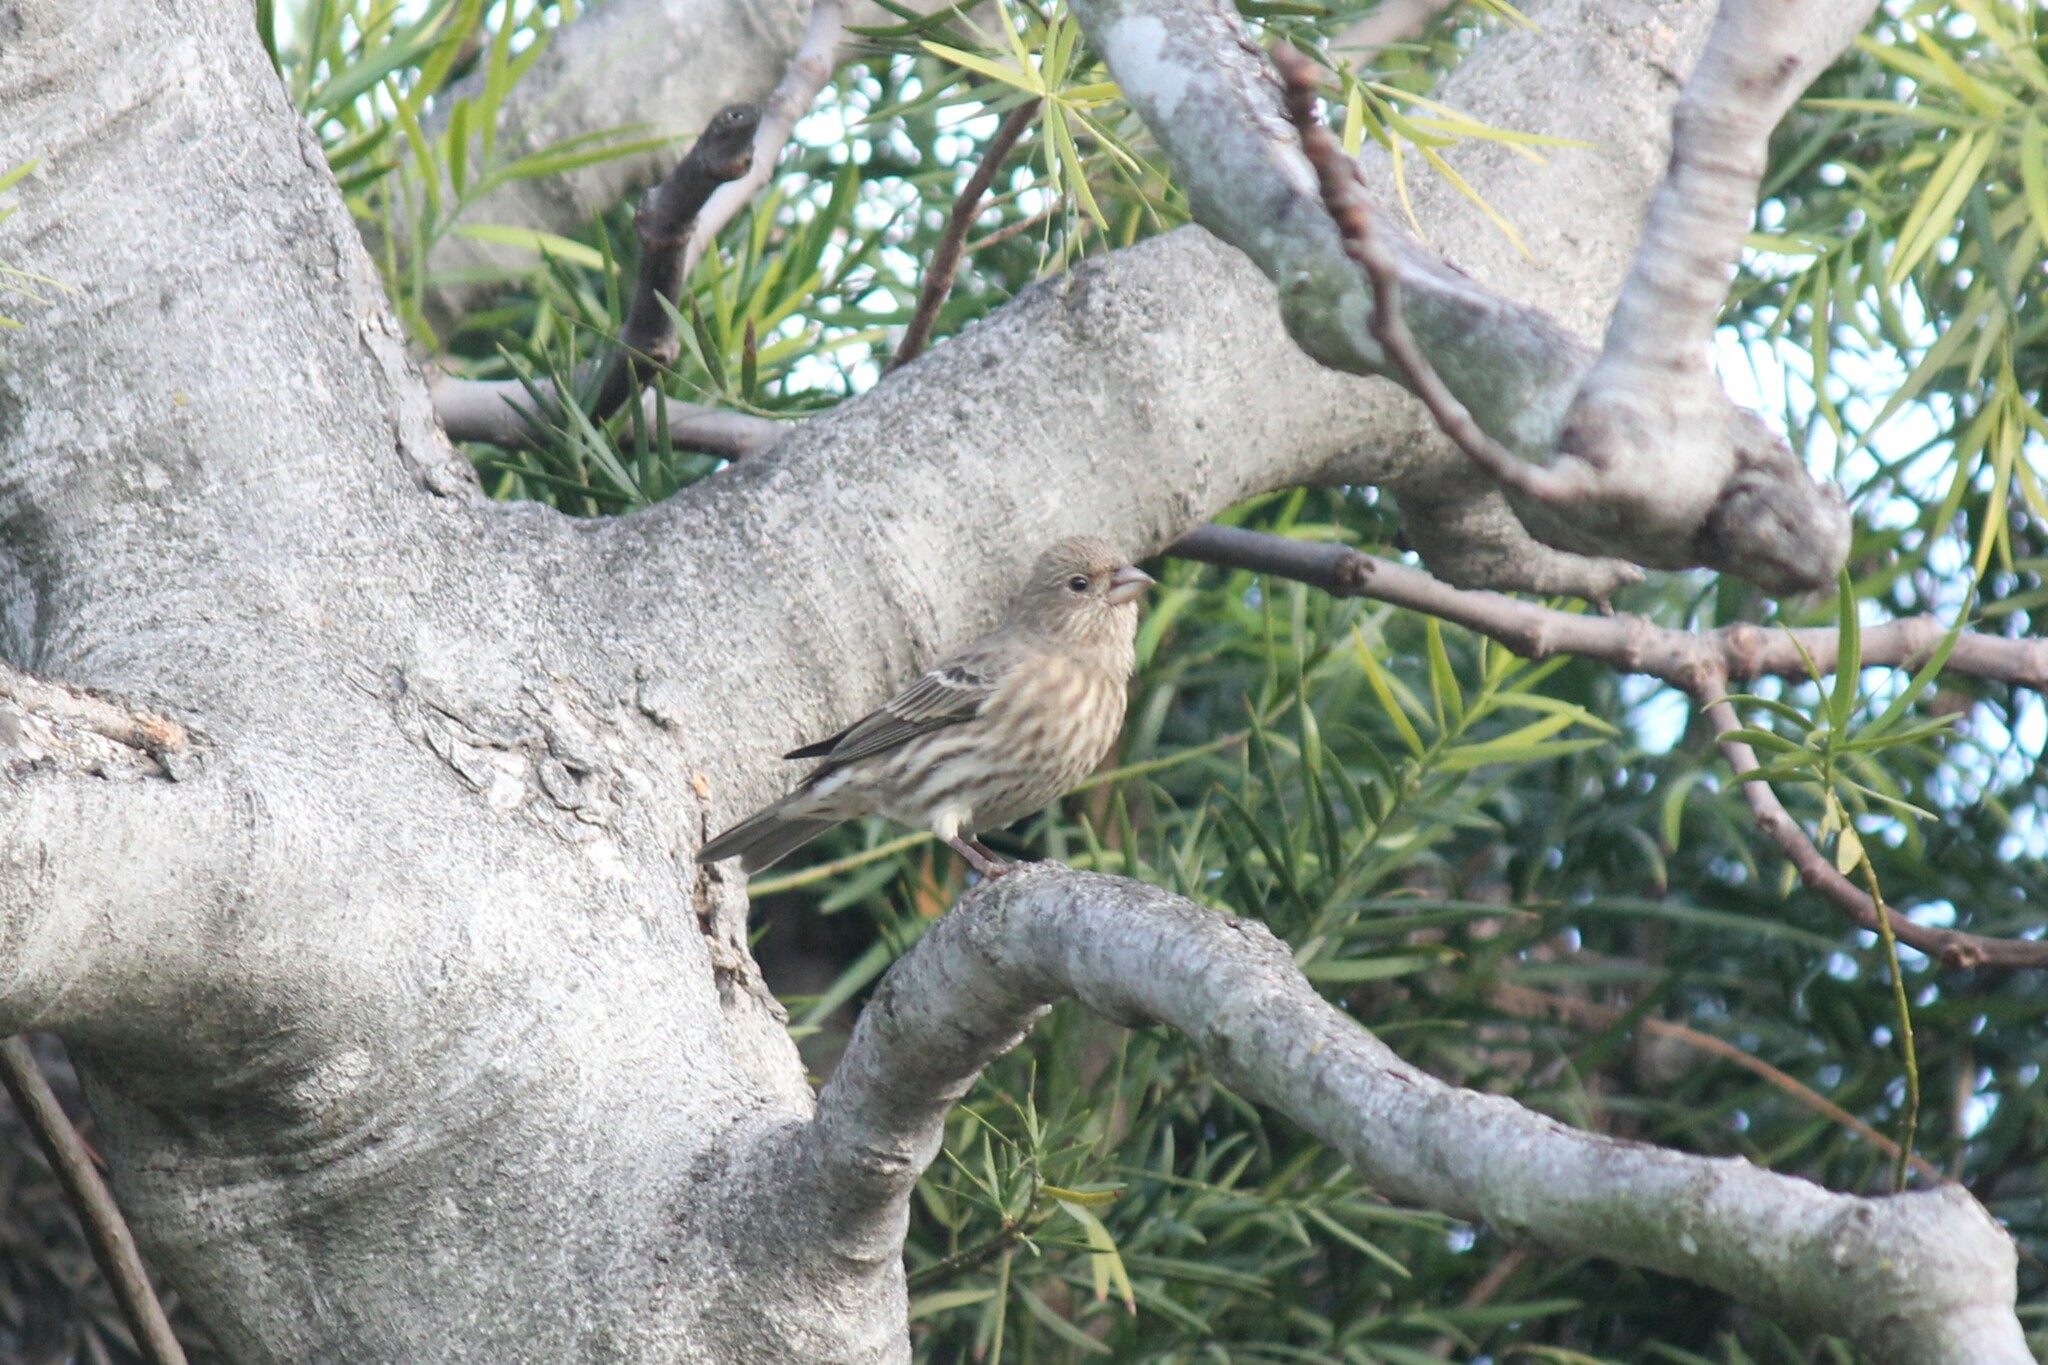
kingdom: Animalia
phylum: Chordata
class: Aves
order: Passeriformes
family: Fringillidae
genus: Haemorhous
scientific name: Haemorhous mexicanus
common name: House finch
